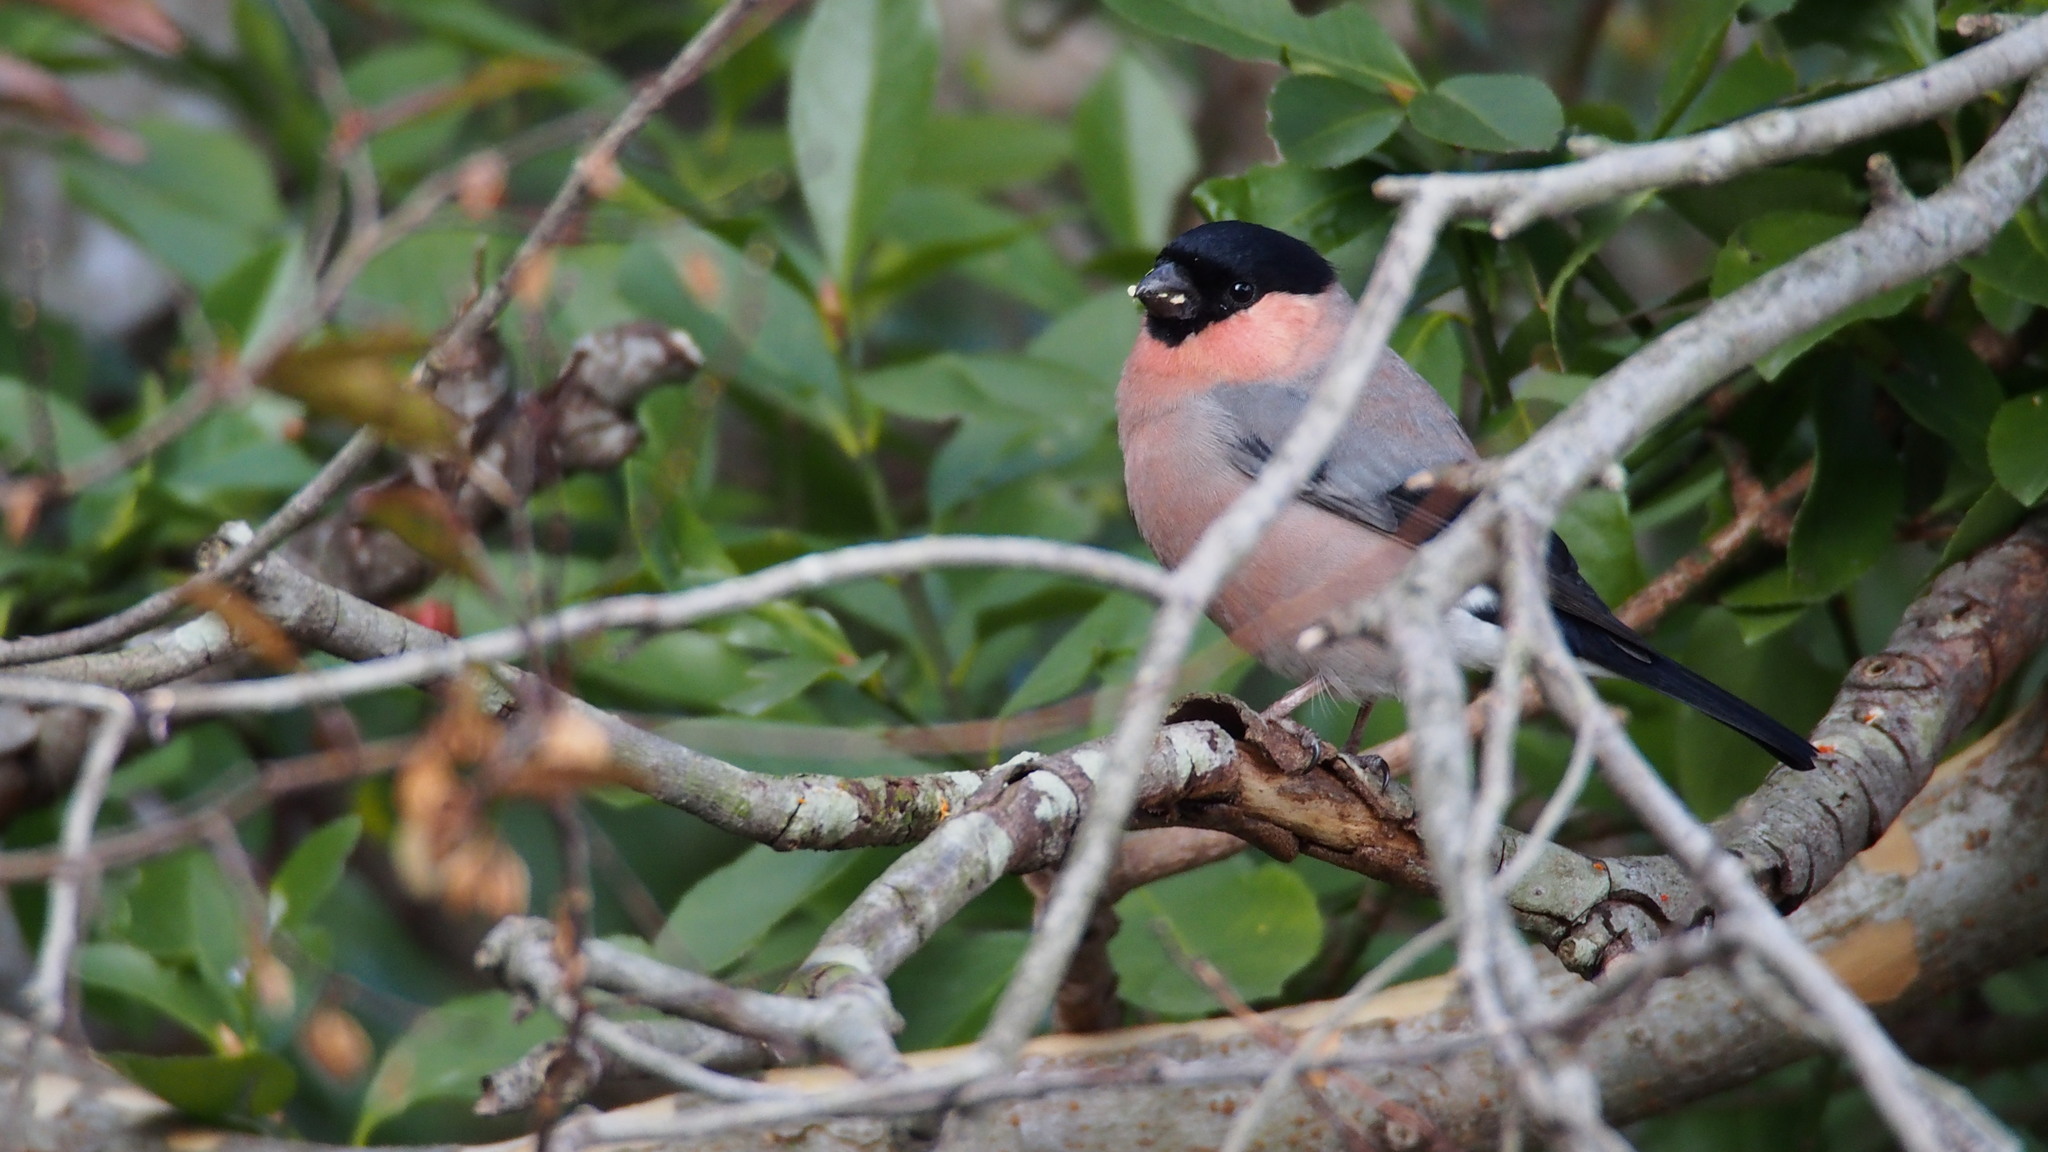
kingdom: Animalia
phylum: Chordata
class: Aves
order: Passeriformes
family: Fringillidae
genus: Pyrrhula
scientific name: Pyrrhula pyrrhula
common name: Eurasian bullfinch
